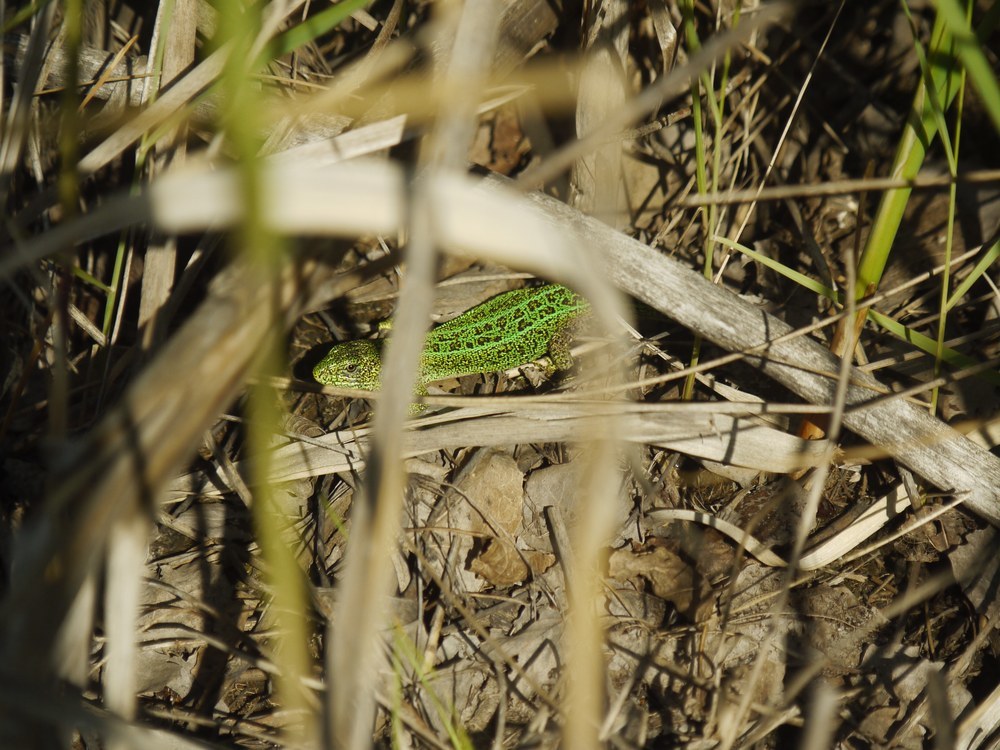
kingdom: Animalia
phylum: Chordata
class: Squamata
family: Lacertidae
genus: Lacerta
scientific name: Lacerta agilis
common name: Sand lizard
